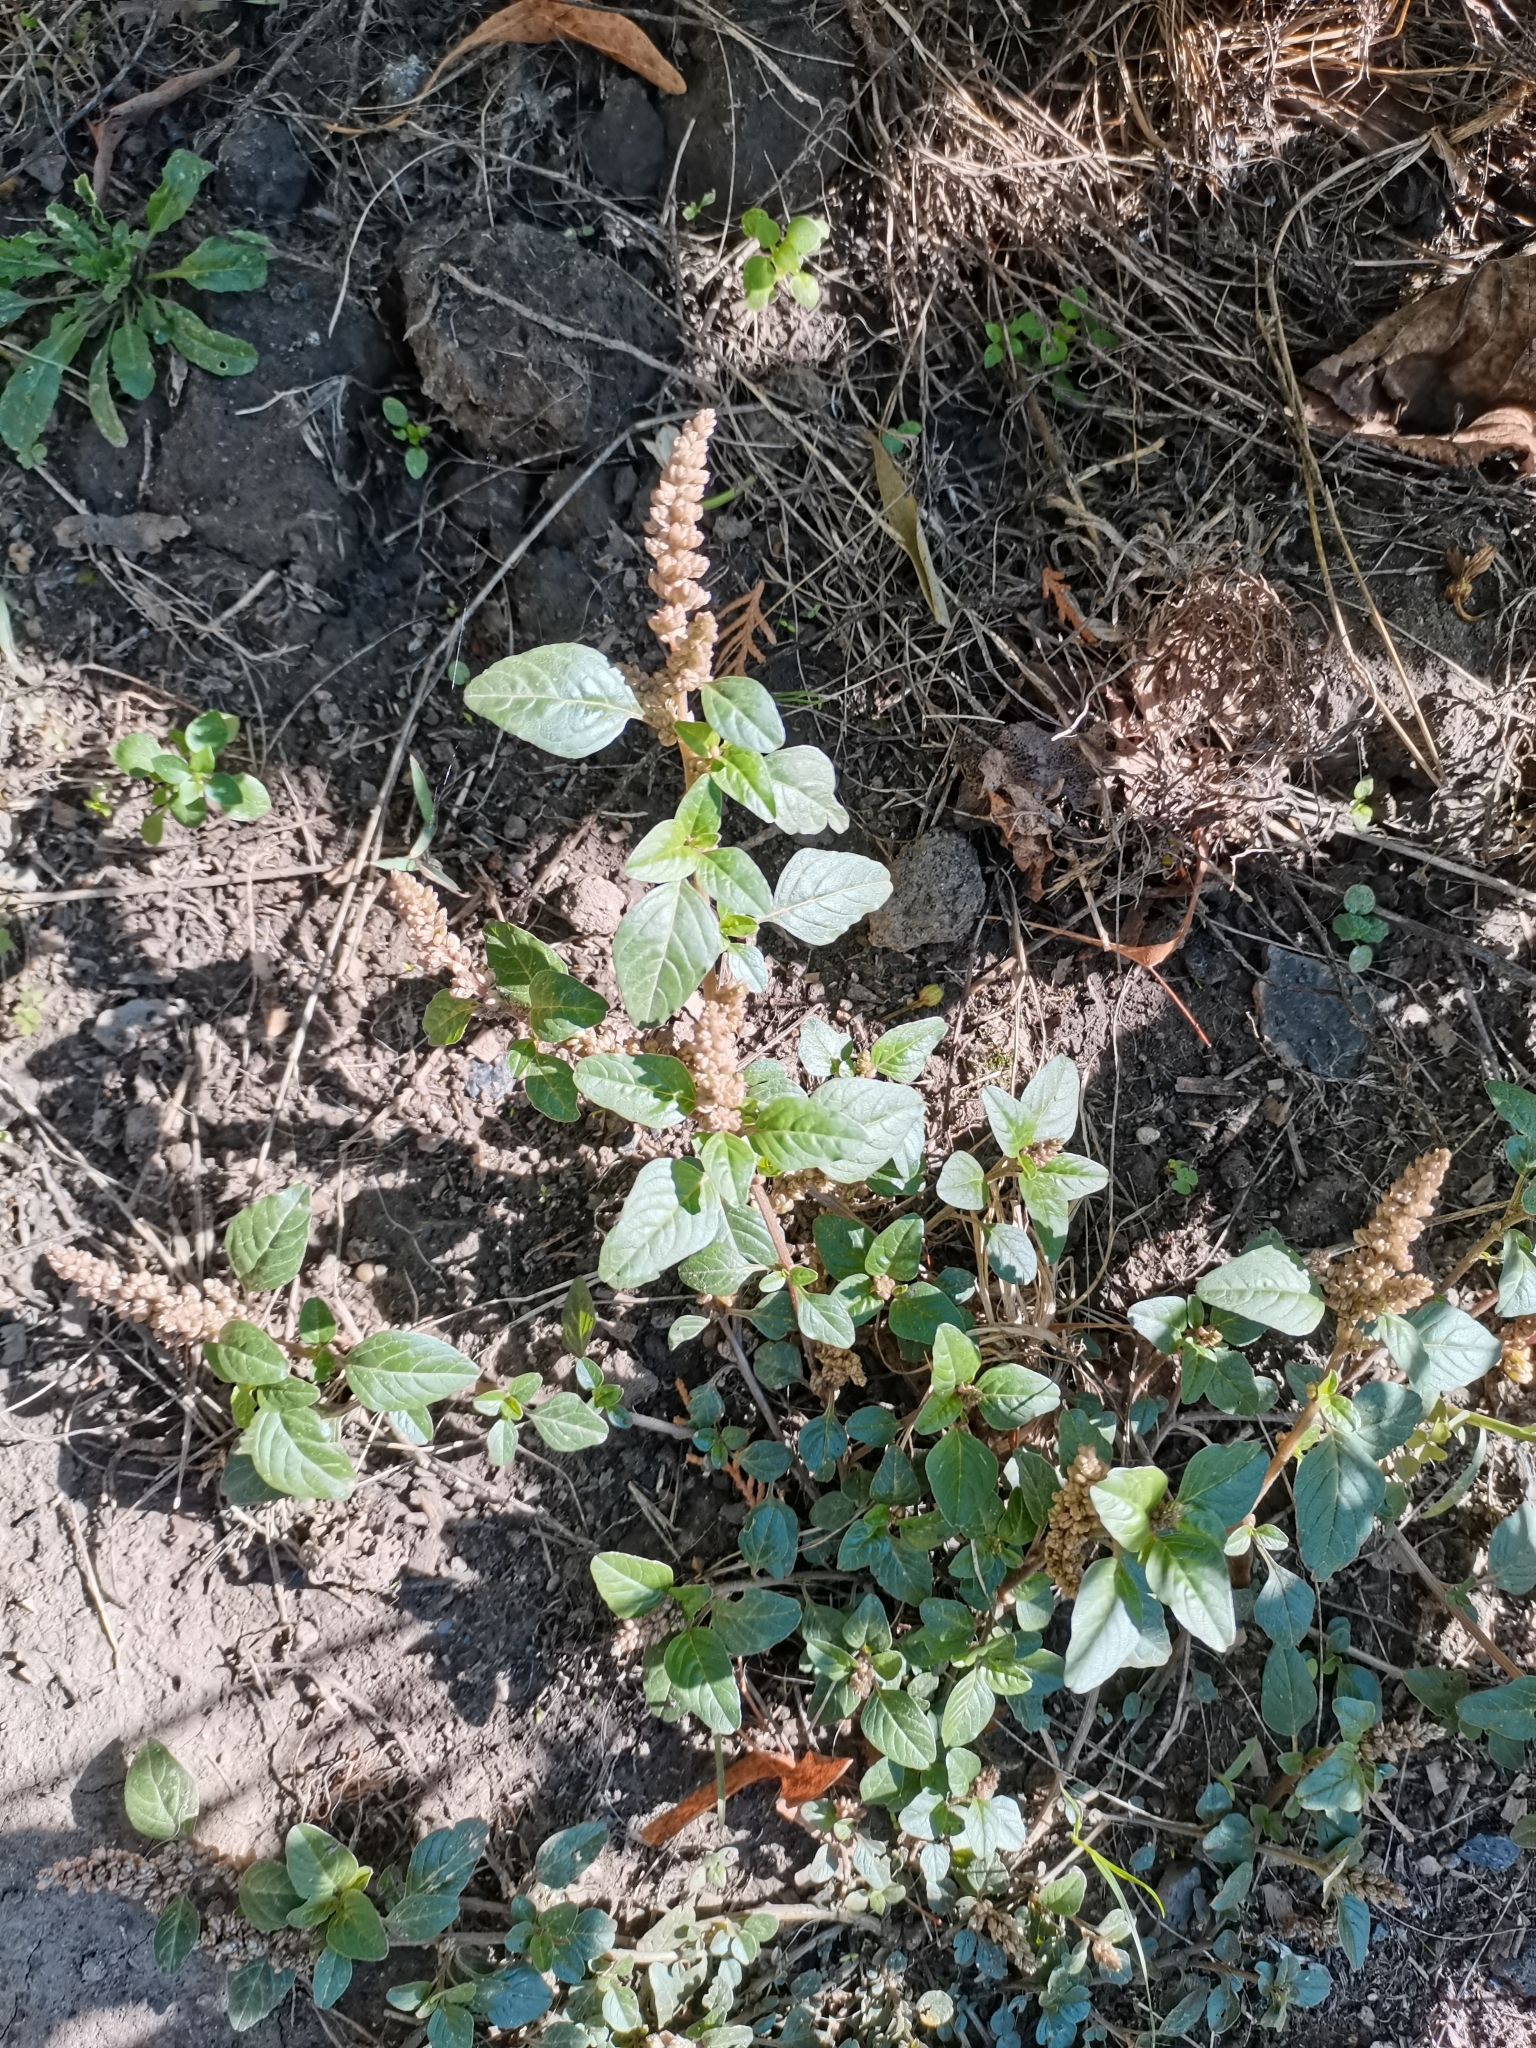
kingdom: Plantae
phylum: Tracheophyta
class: Magnoliopsida
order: Caryophyllales
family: Amaranthaceae
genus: Amaranthus
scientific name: Amaranthus deflexus
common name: Perennial pigweed
